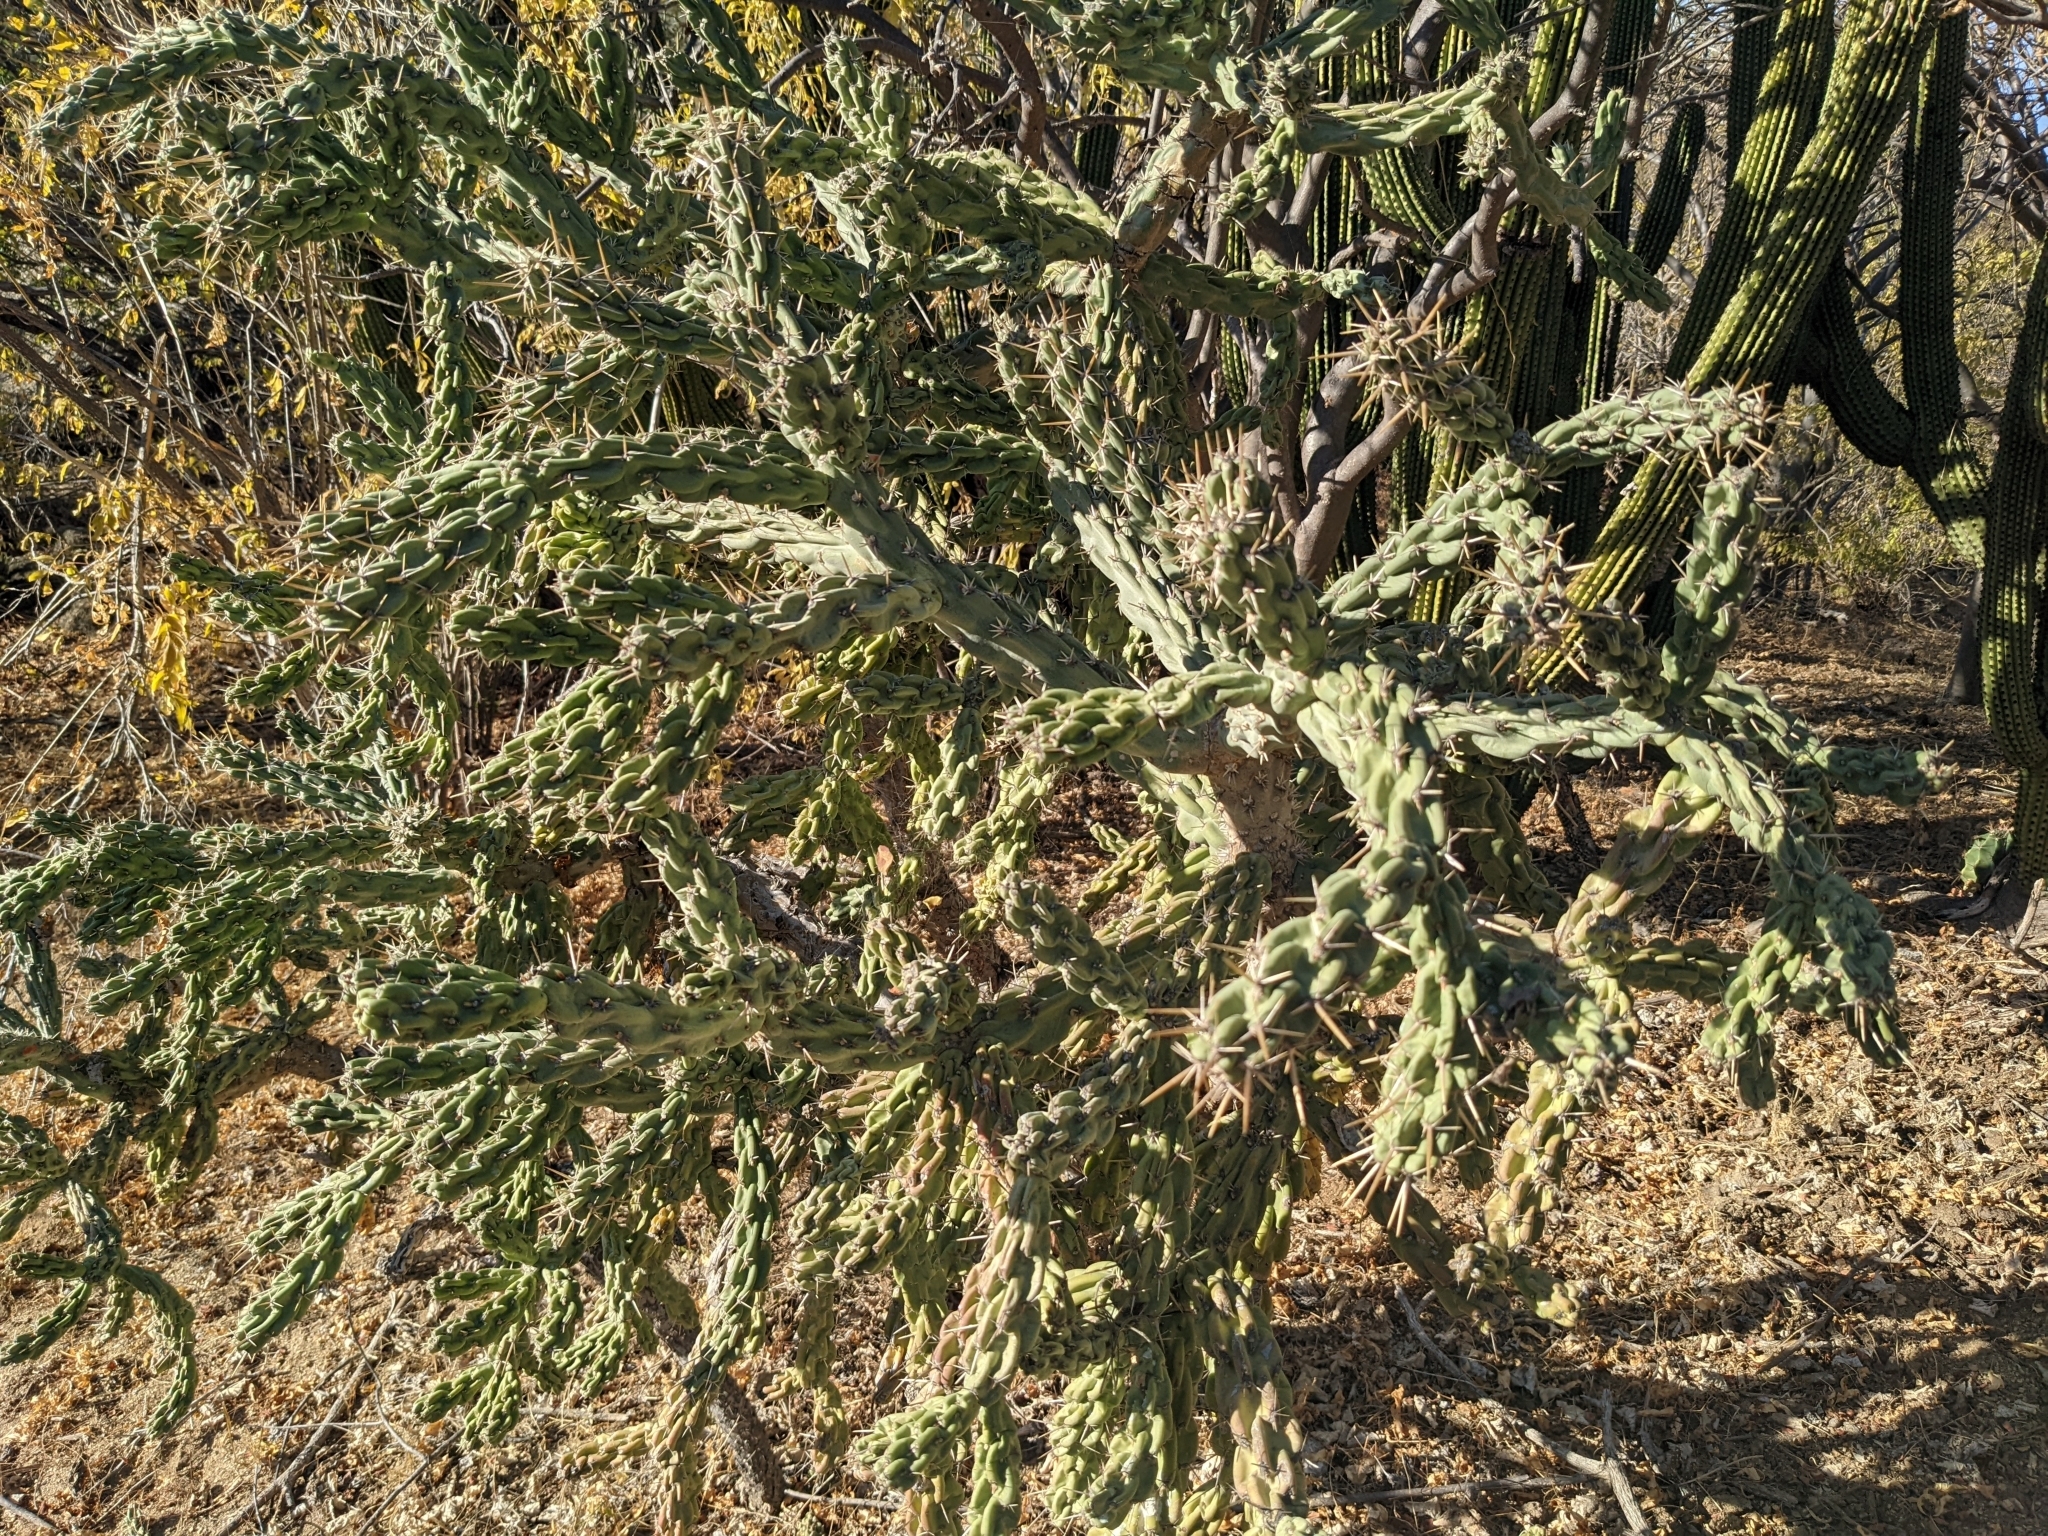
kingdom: Plantae
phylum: Tracheophyta
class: Magnoliopsida
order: Caryophyllales
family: Cactaceae
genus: Cylindropuntia
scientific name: Cylindropuntia cholla
